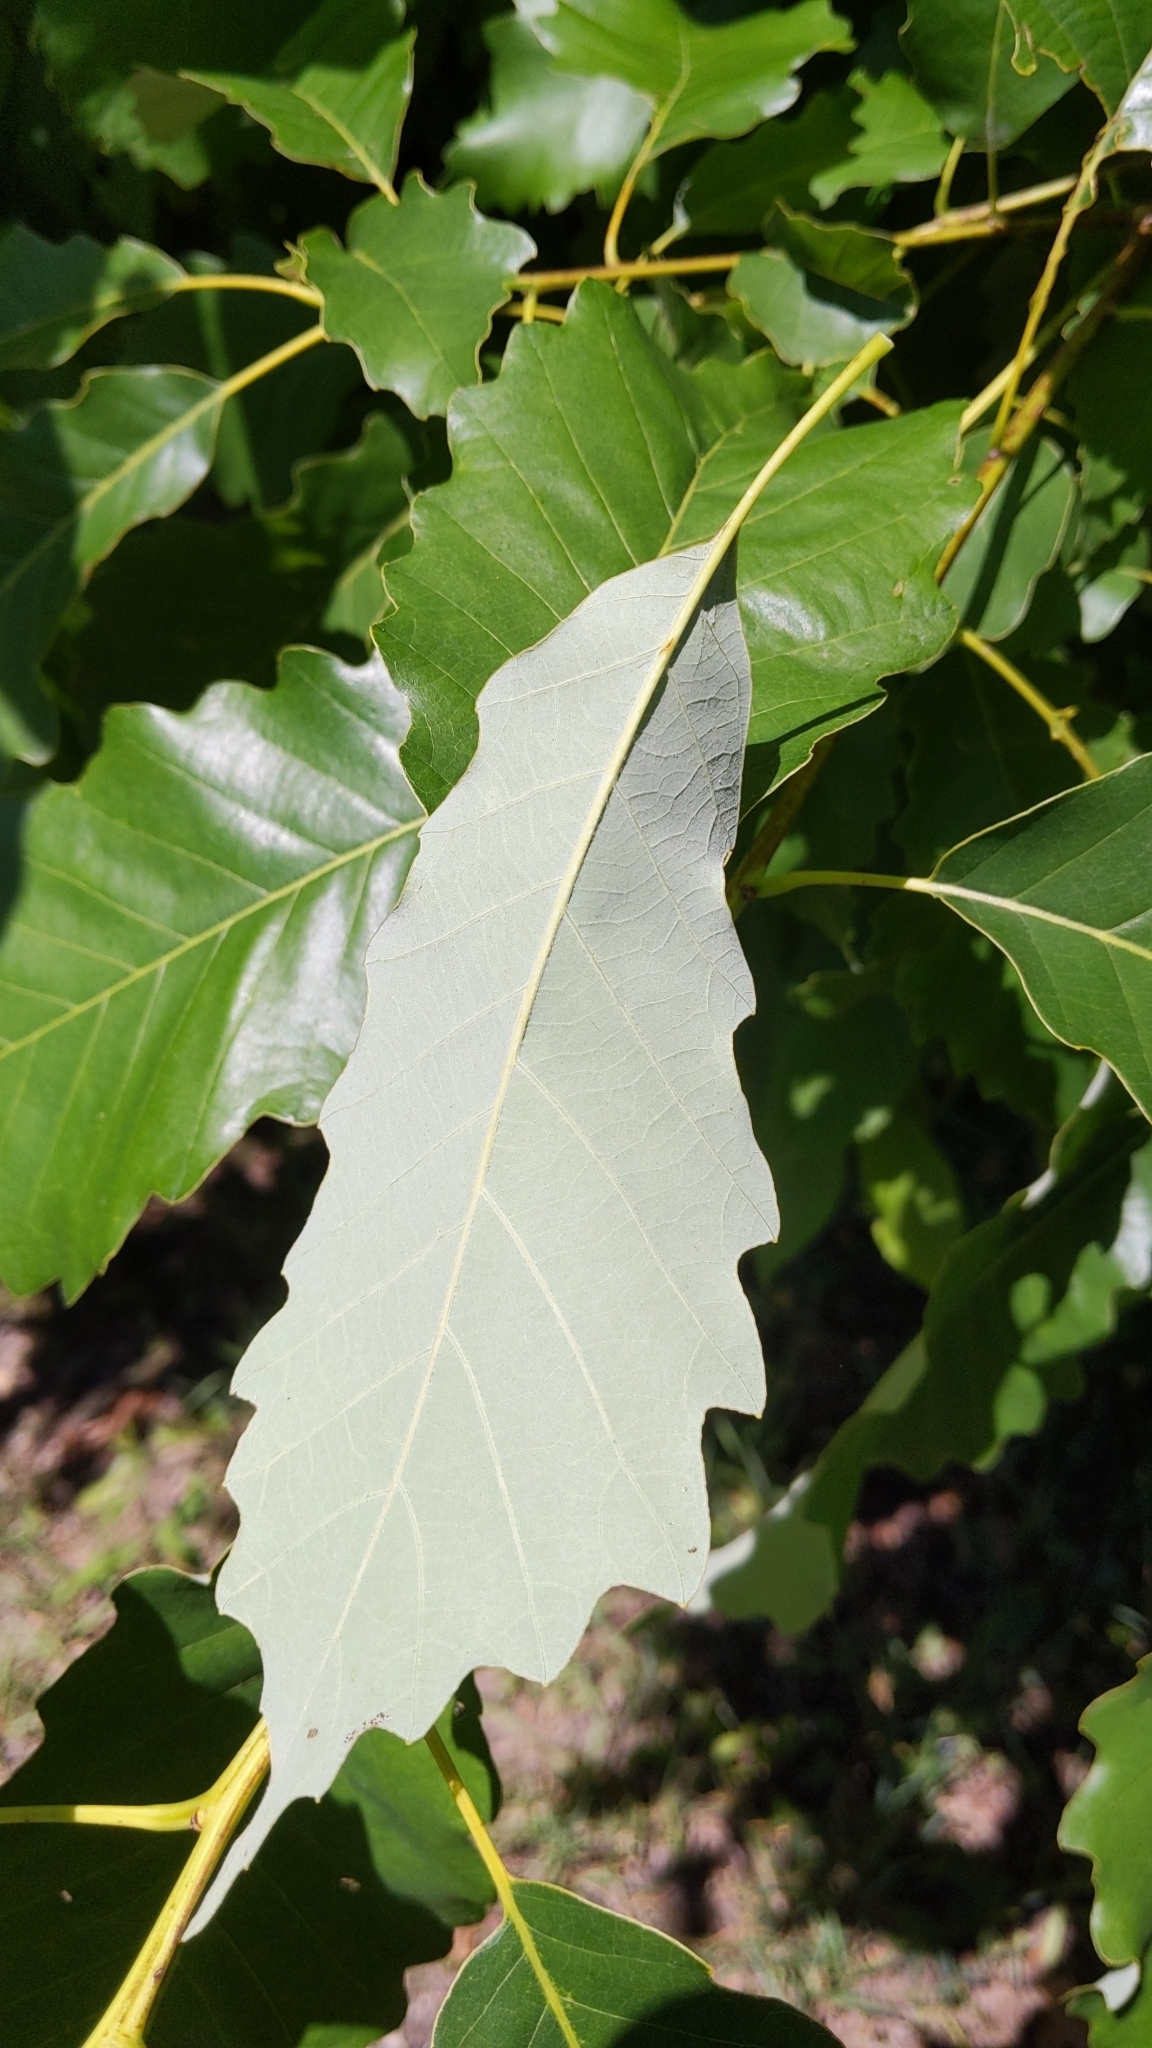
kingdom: Plantae
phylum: Tracheophyta
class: Magnoliopsida
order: Fagales
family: Fagaceae
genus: Quercus
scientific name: Quercus muehlenbergii
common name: Chinkapin oak
